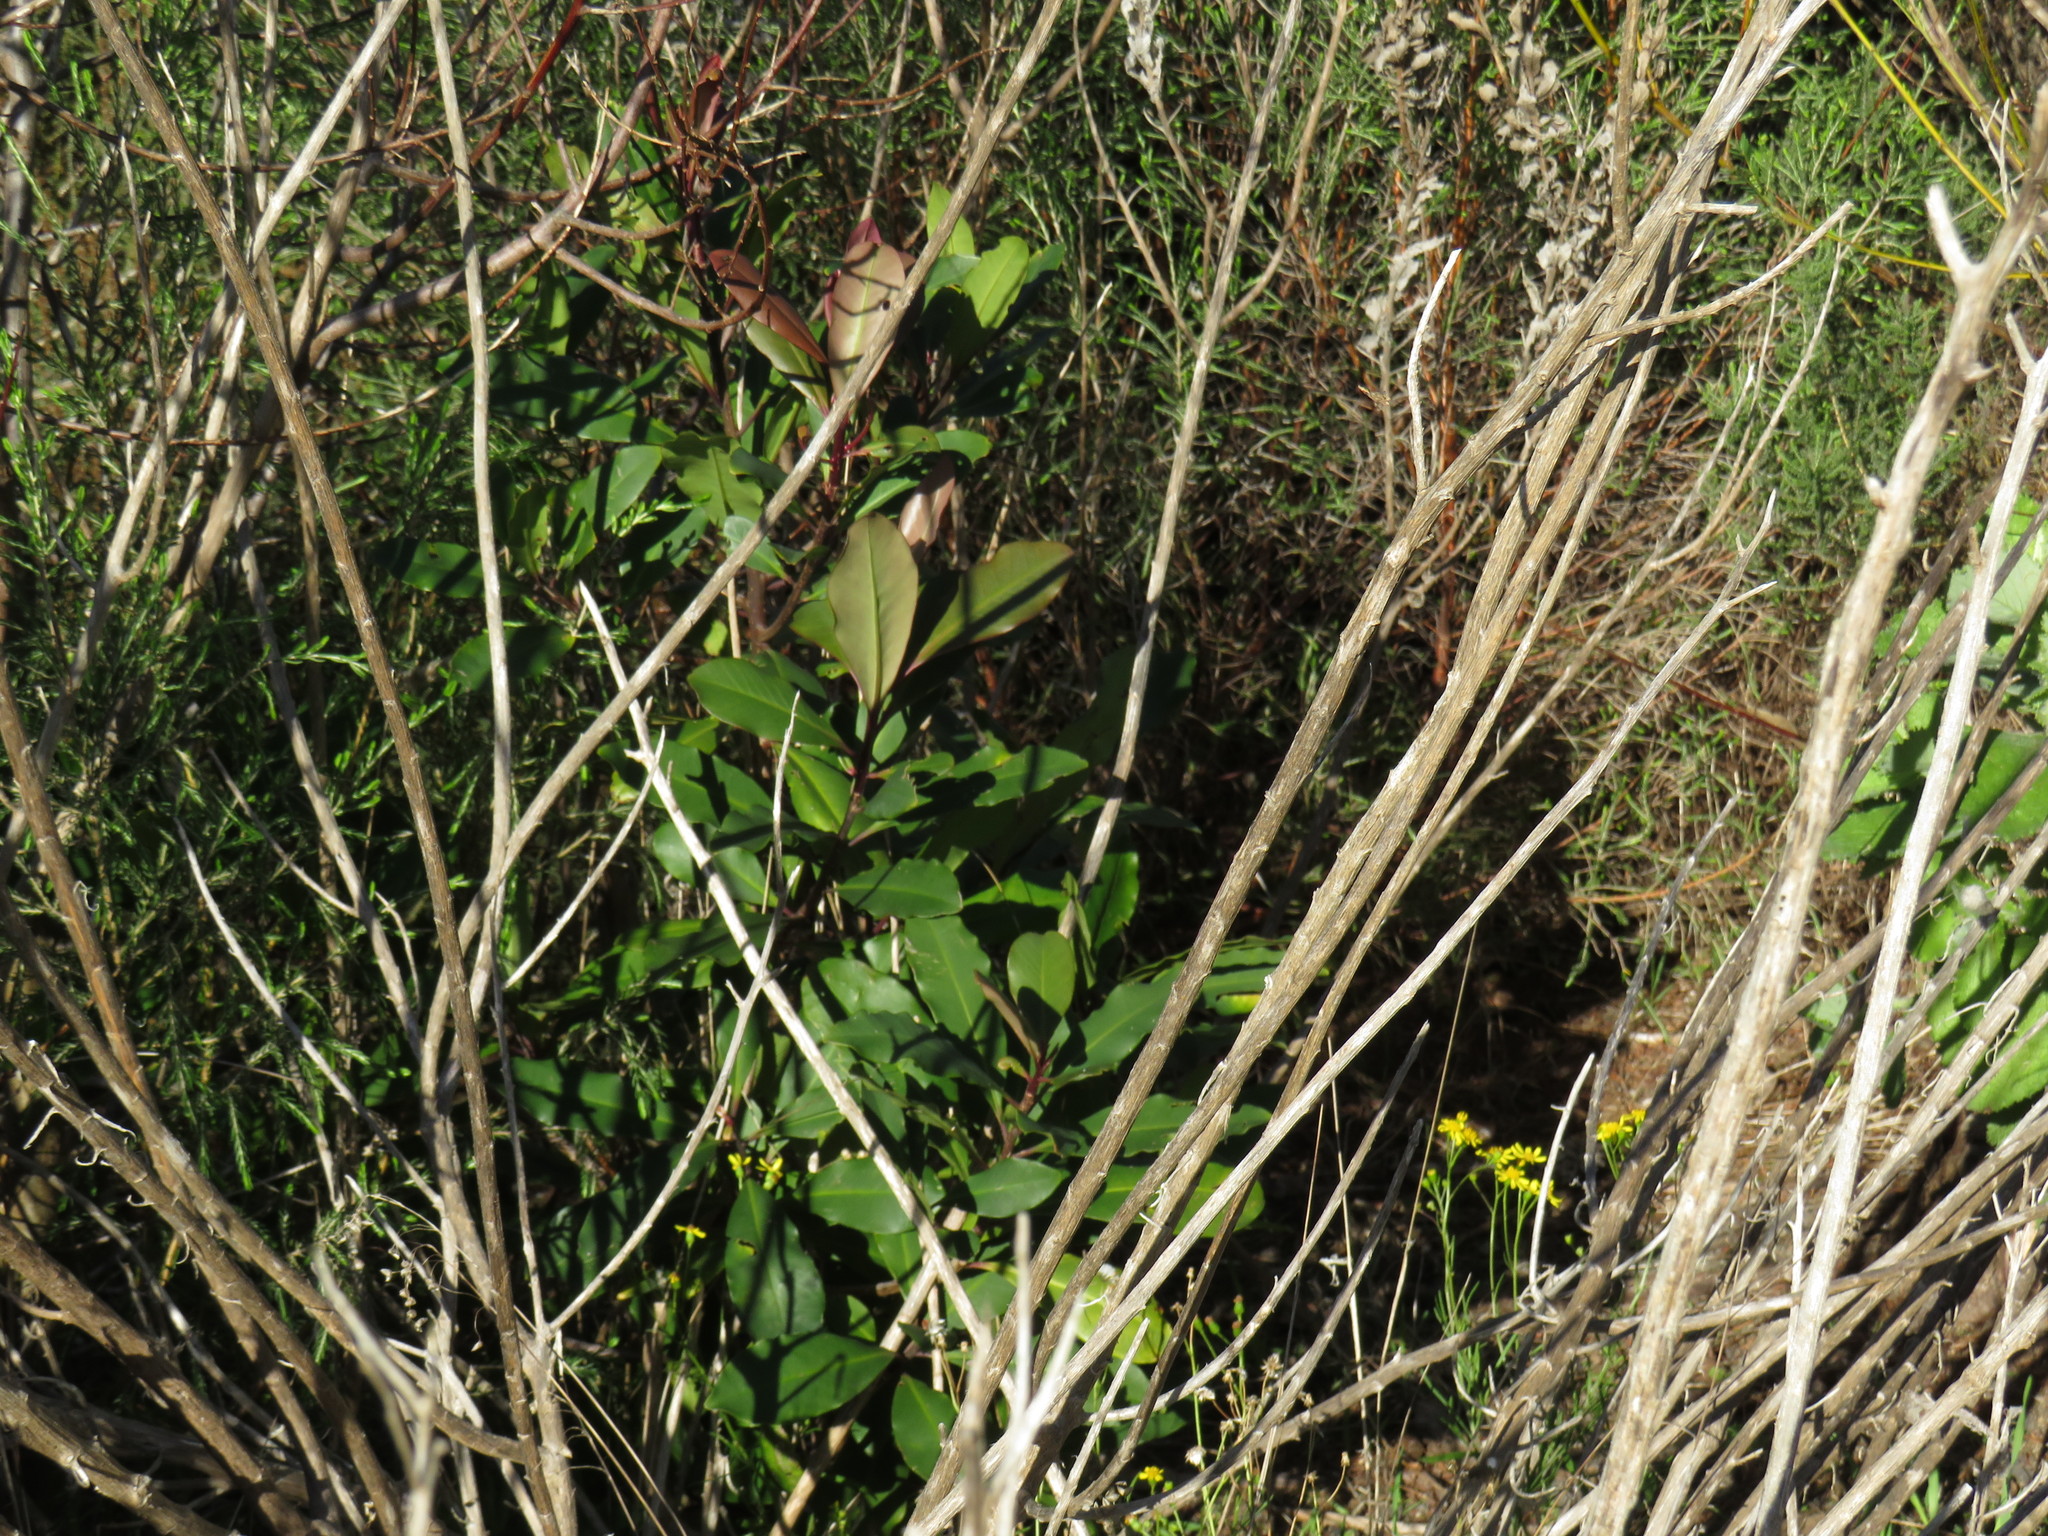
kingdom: Plantae
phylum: Tracheophyta
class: Magnoliopsida
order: Ericales
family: Primulaceae
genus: Myrsine
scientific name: Myrsine melanophloeos
